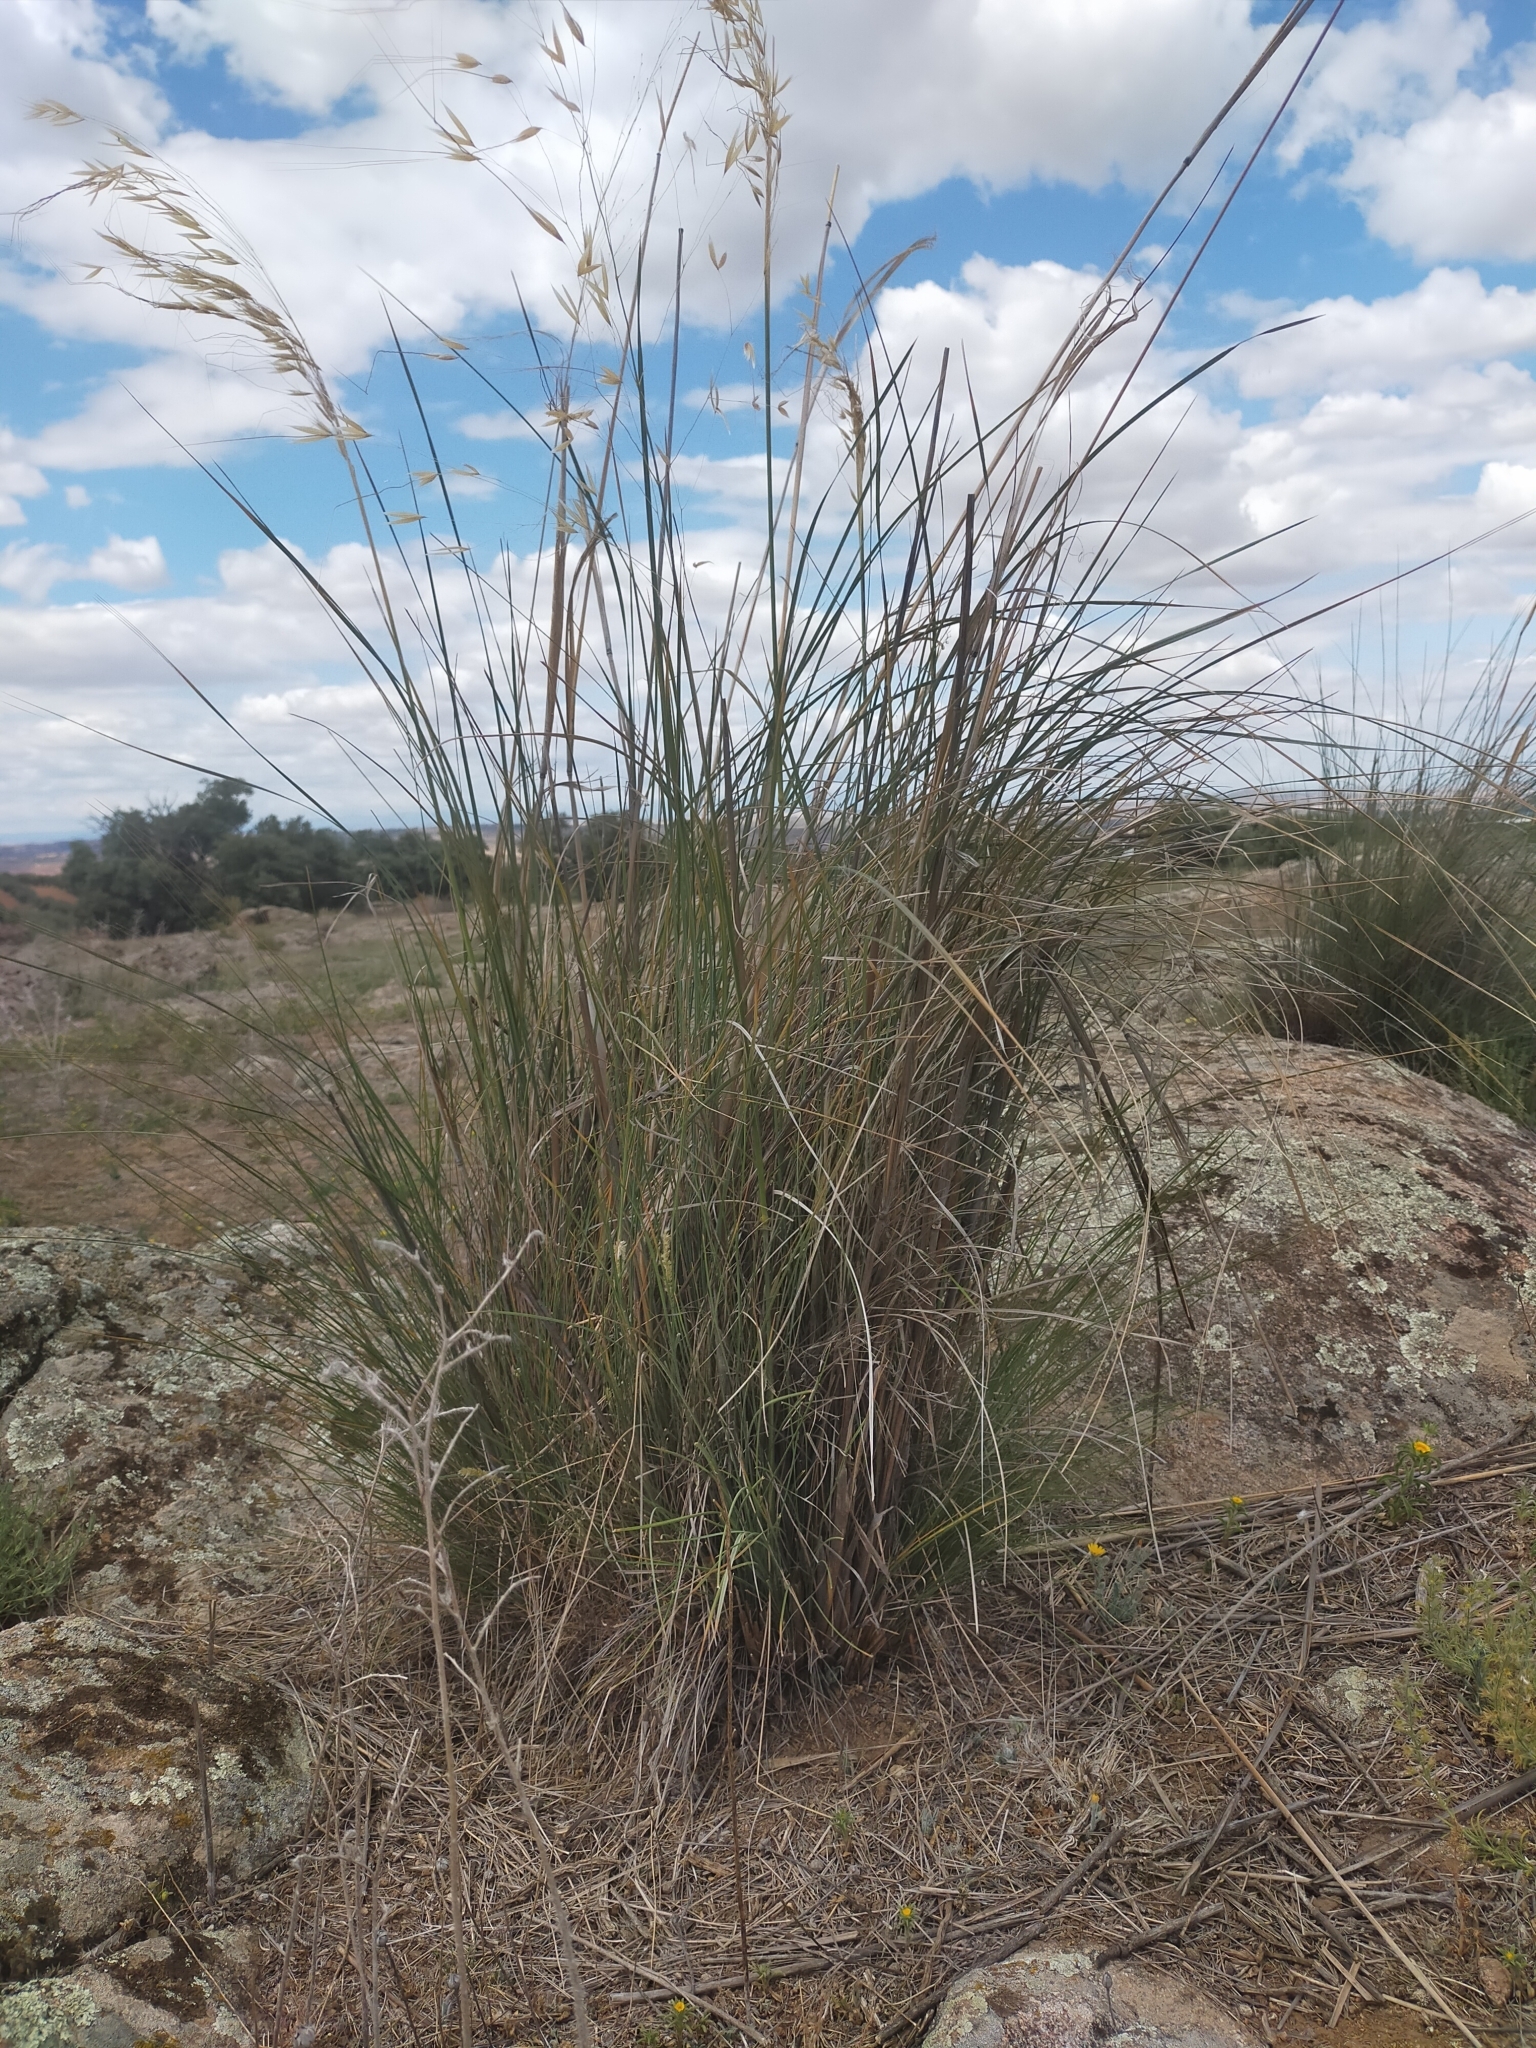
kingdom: Plantae
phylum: Tracheophyta
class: Liliopsida
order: Poales
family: Poaceae
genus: Celtica
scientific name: Celtica gigantea
